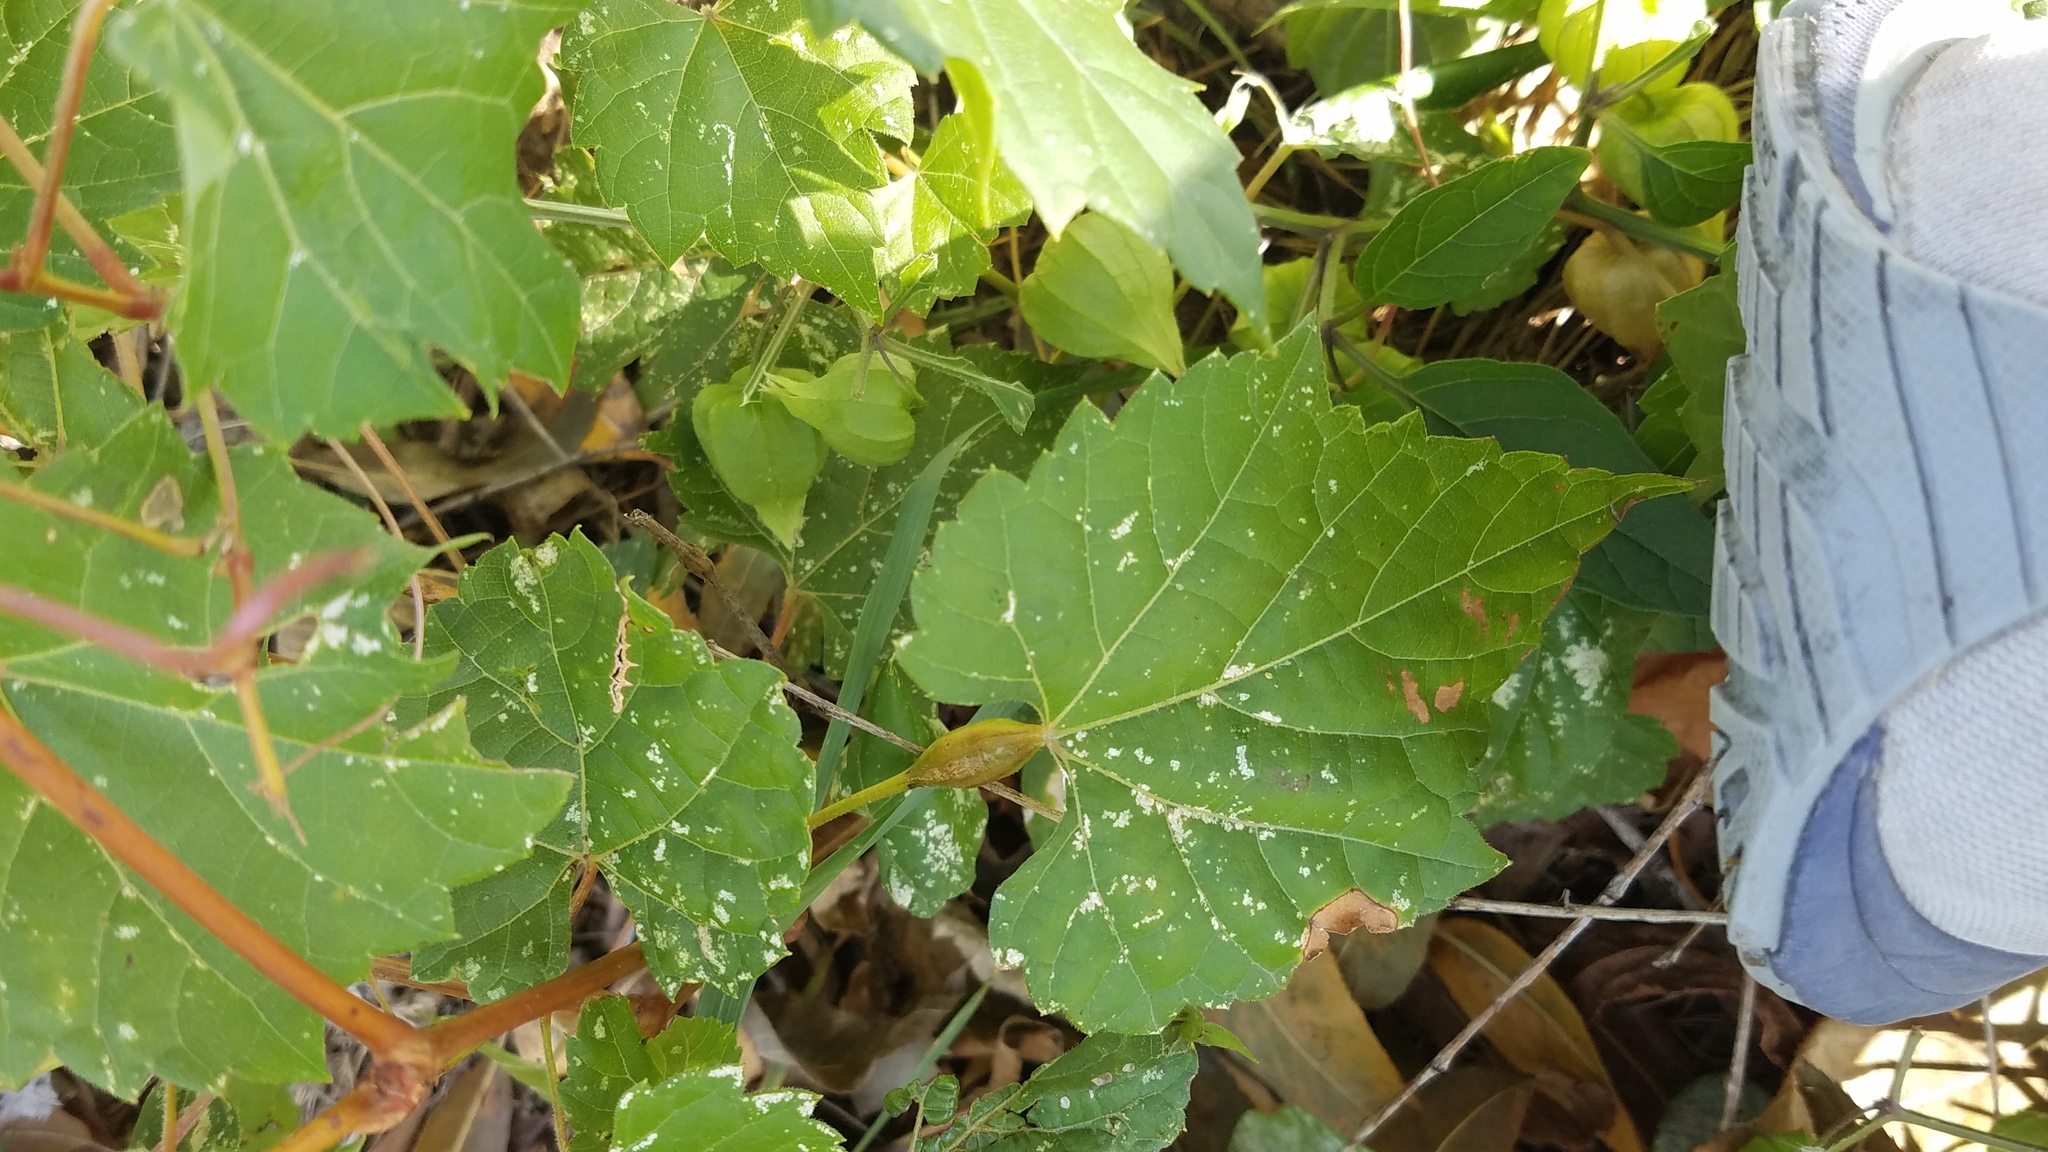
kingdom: Animalia
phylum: Arthropoda
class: Insecta
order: Diptera
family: Cecidomyiidae
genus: Neolasioptera
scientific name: Neolasioptera vitinea
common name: Grape leaf petiole gall
